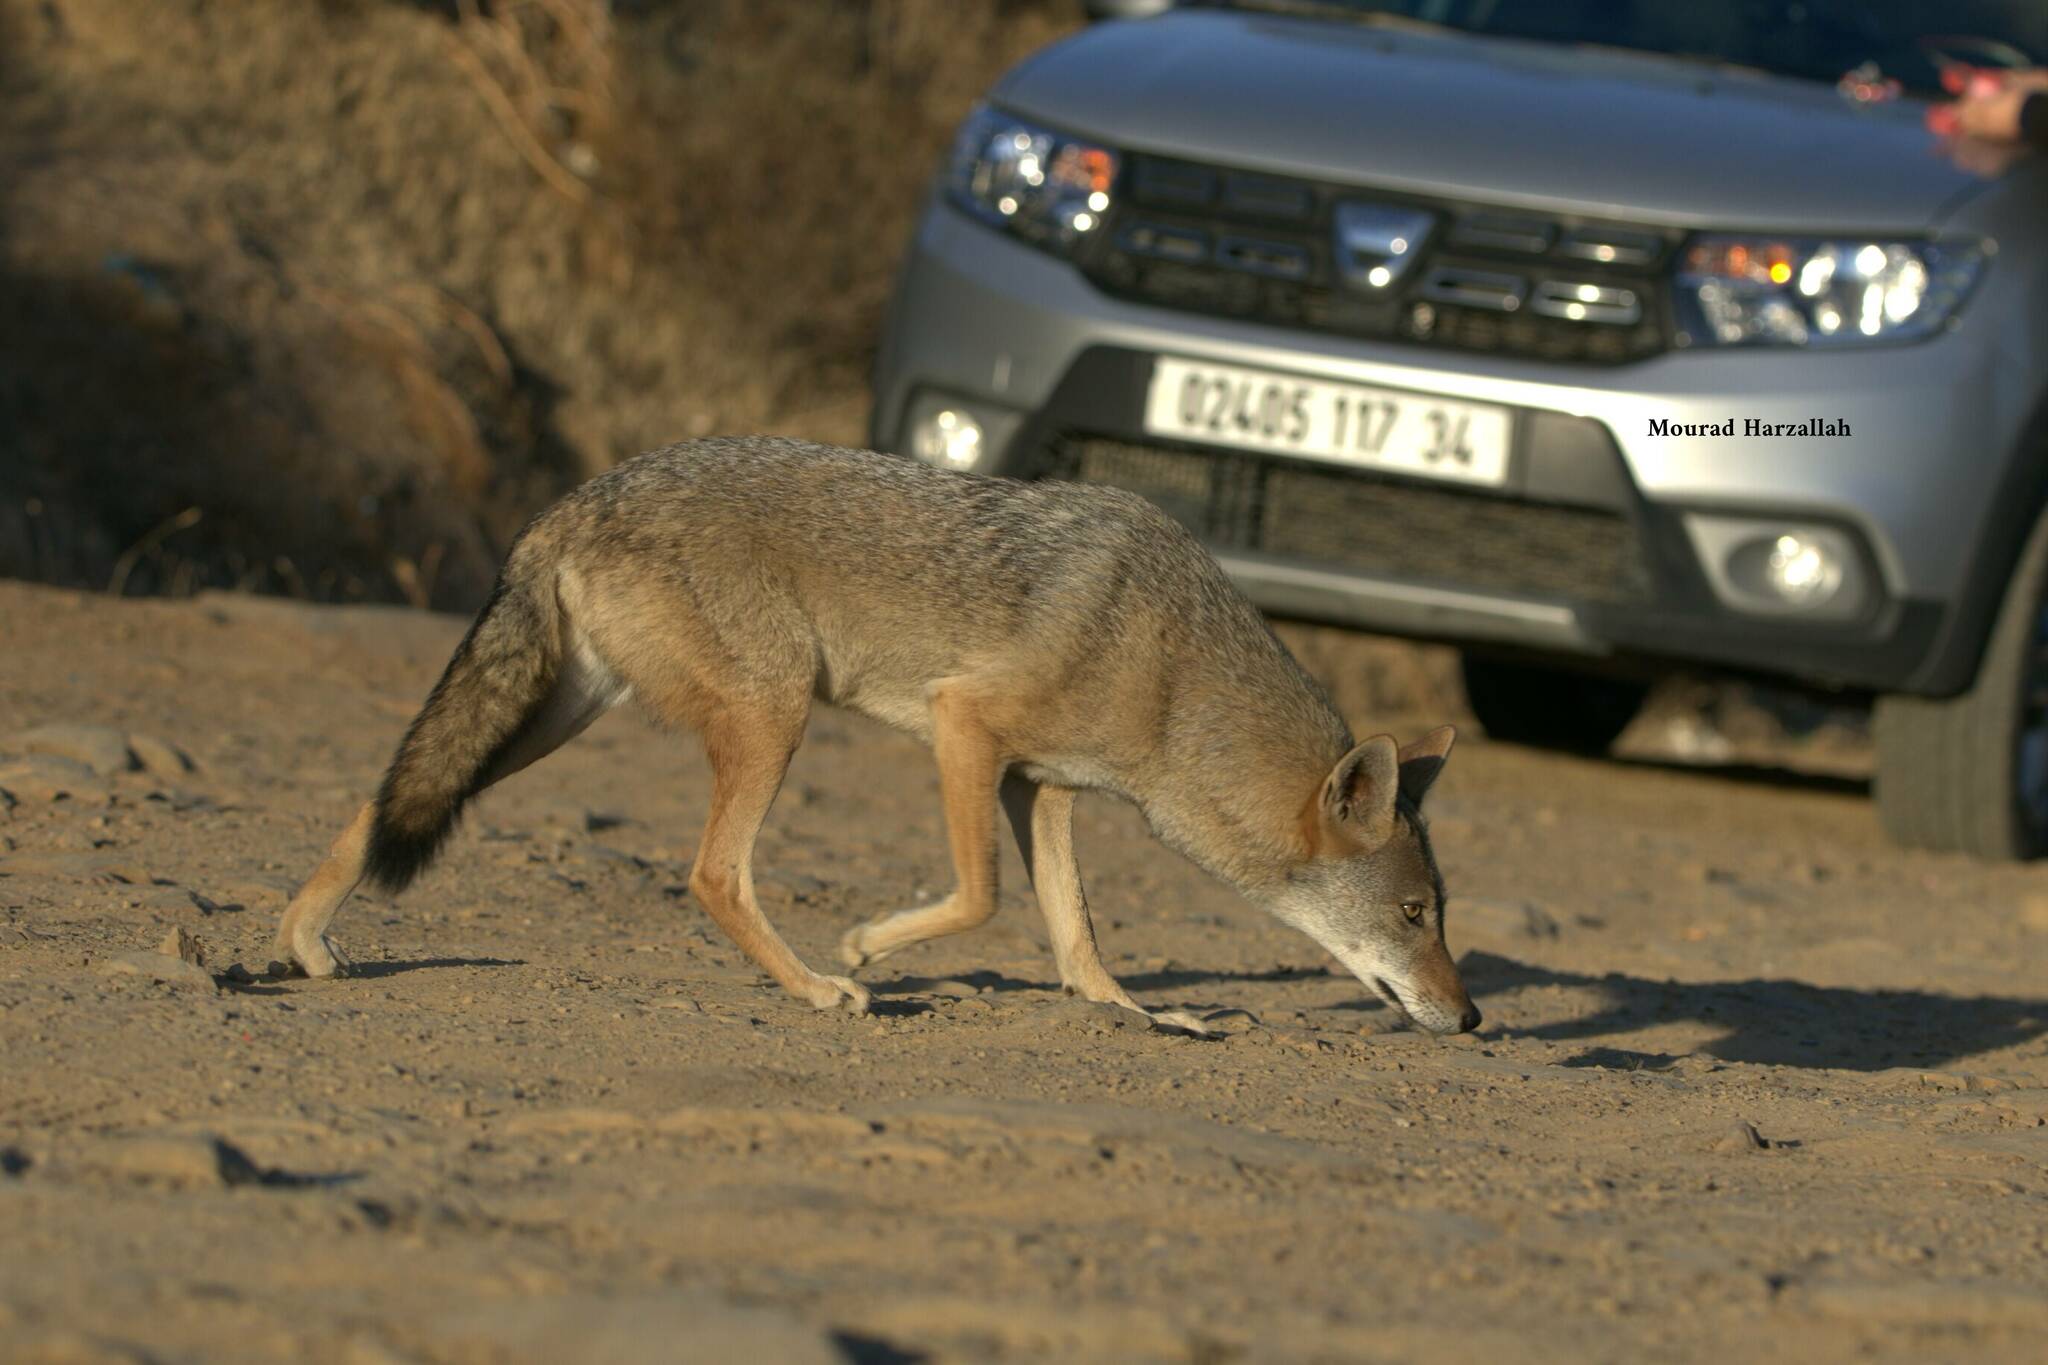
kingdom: Animalia
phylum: Chordata
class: Mammalia
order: Carnivora
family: Canidae
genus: Canis
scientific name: Canis lupaster
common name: African golden wolf
